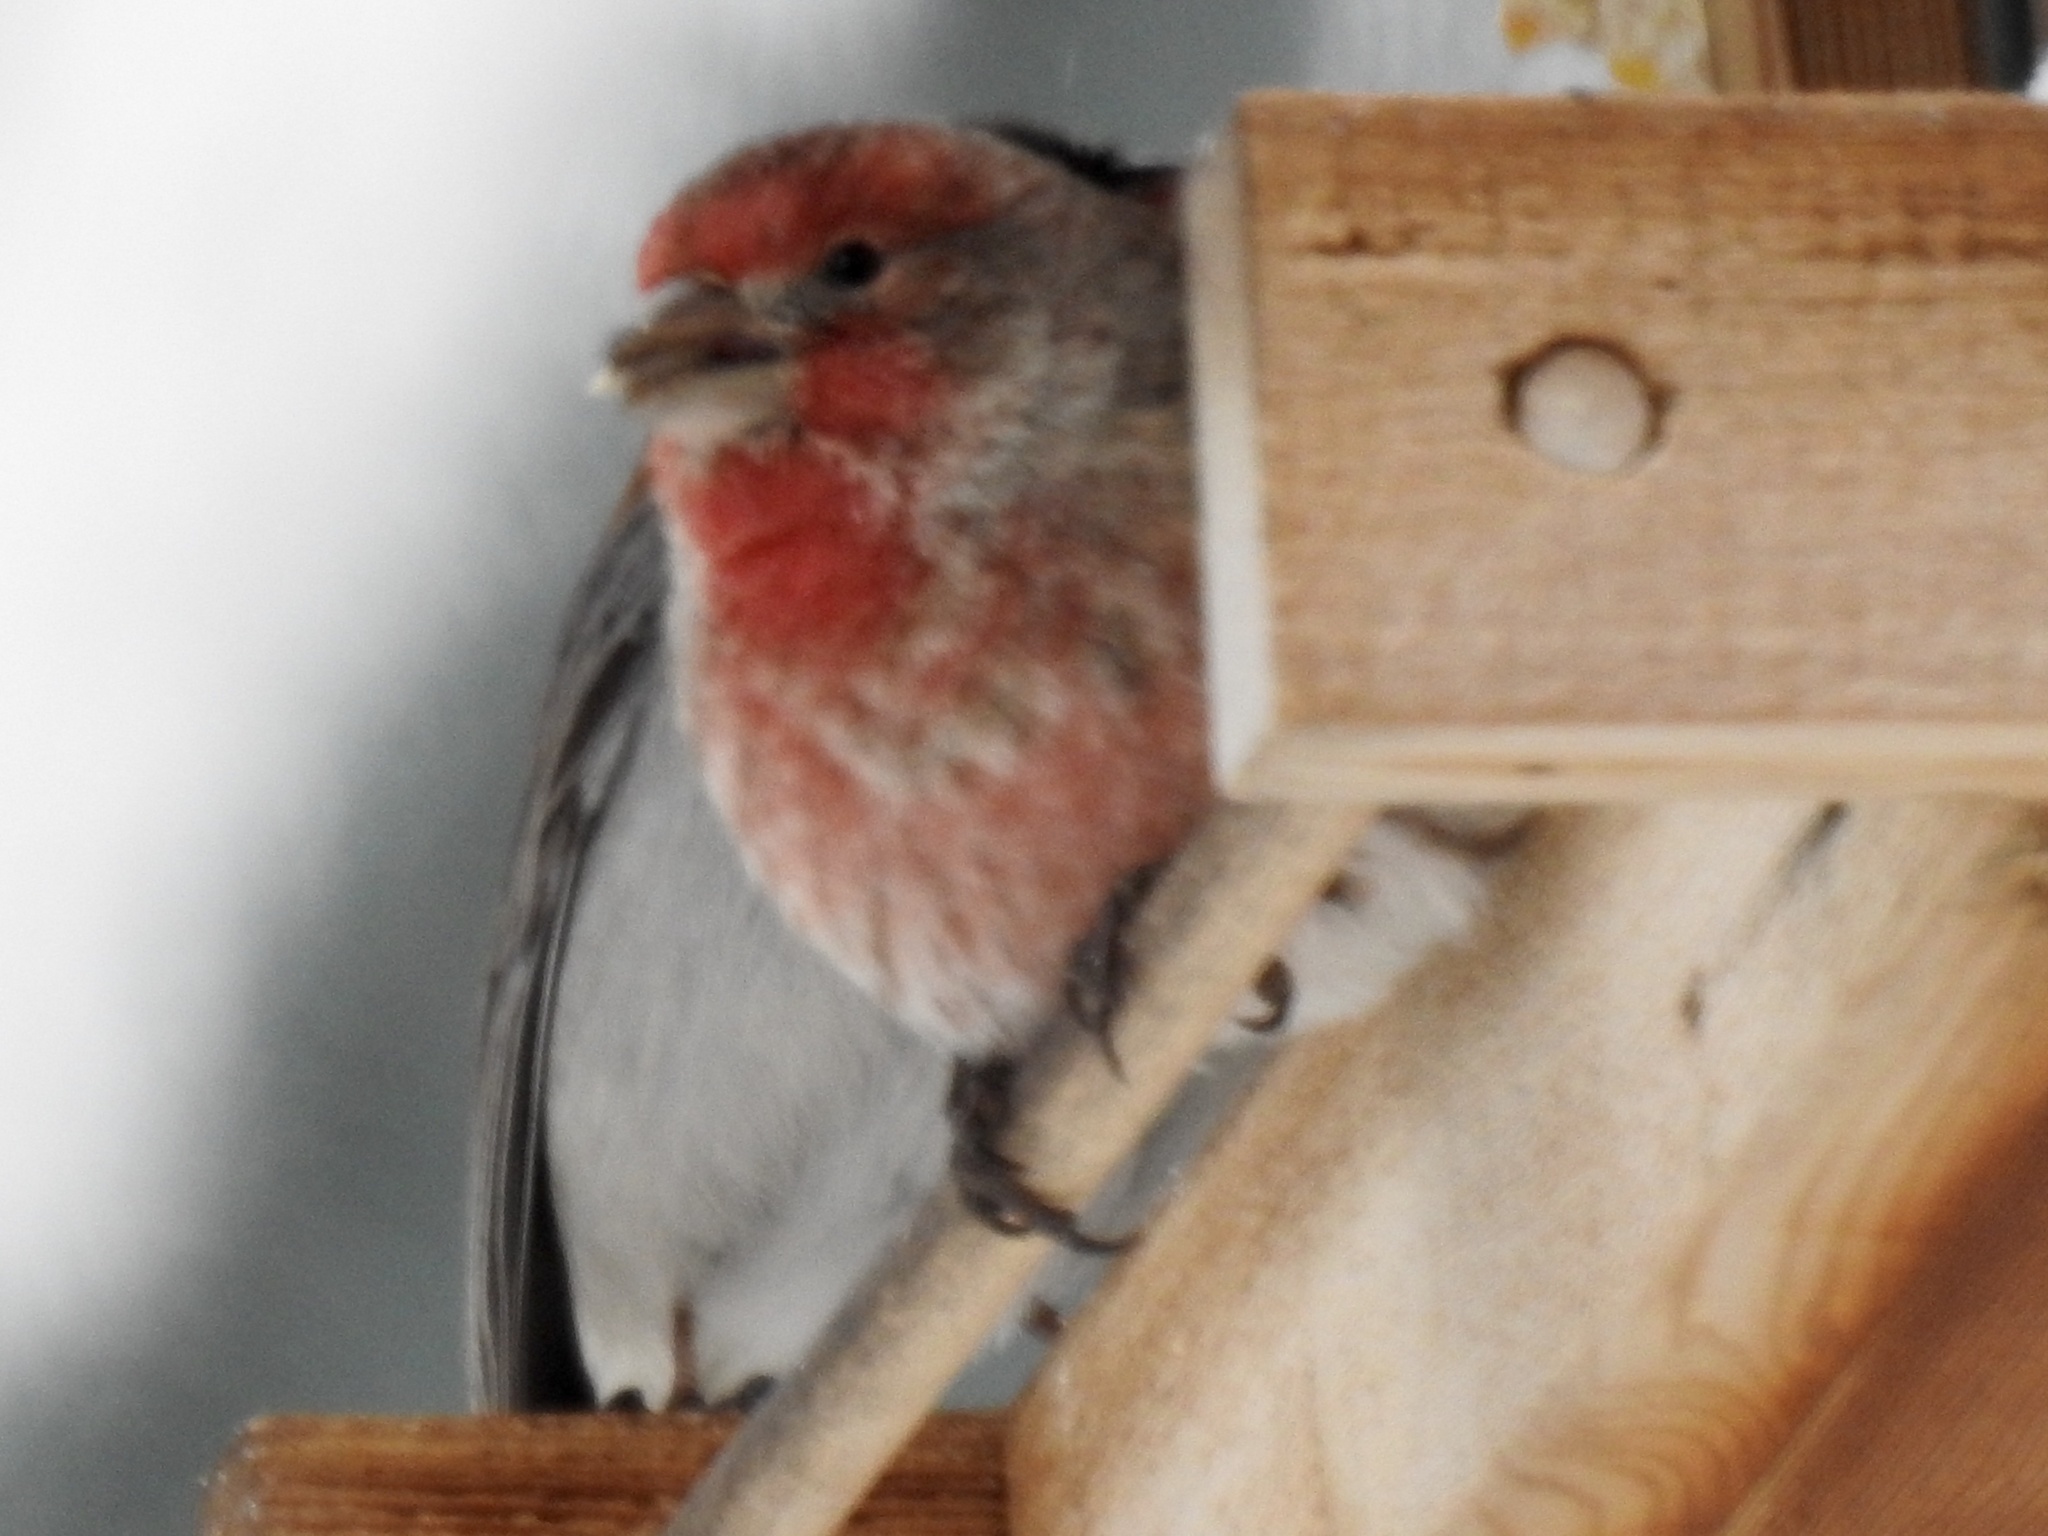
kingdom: Animalia
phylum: Chordata
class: Aves
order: Passeriformes
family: Fringillidae
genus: Haemorhous
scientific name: Haemorhous mexicanus
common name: House finch
